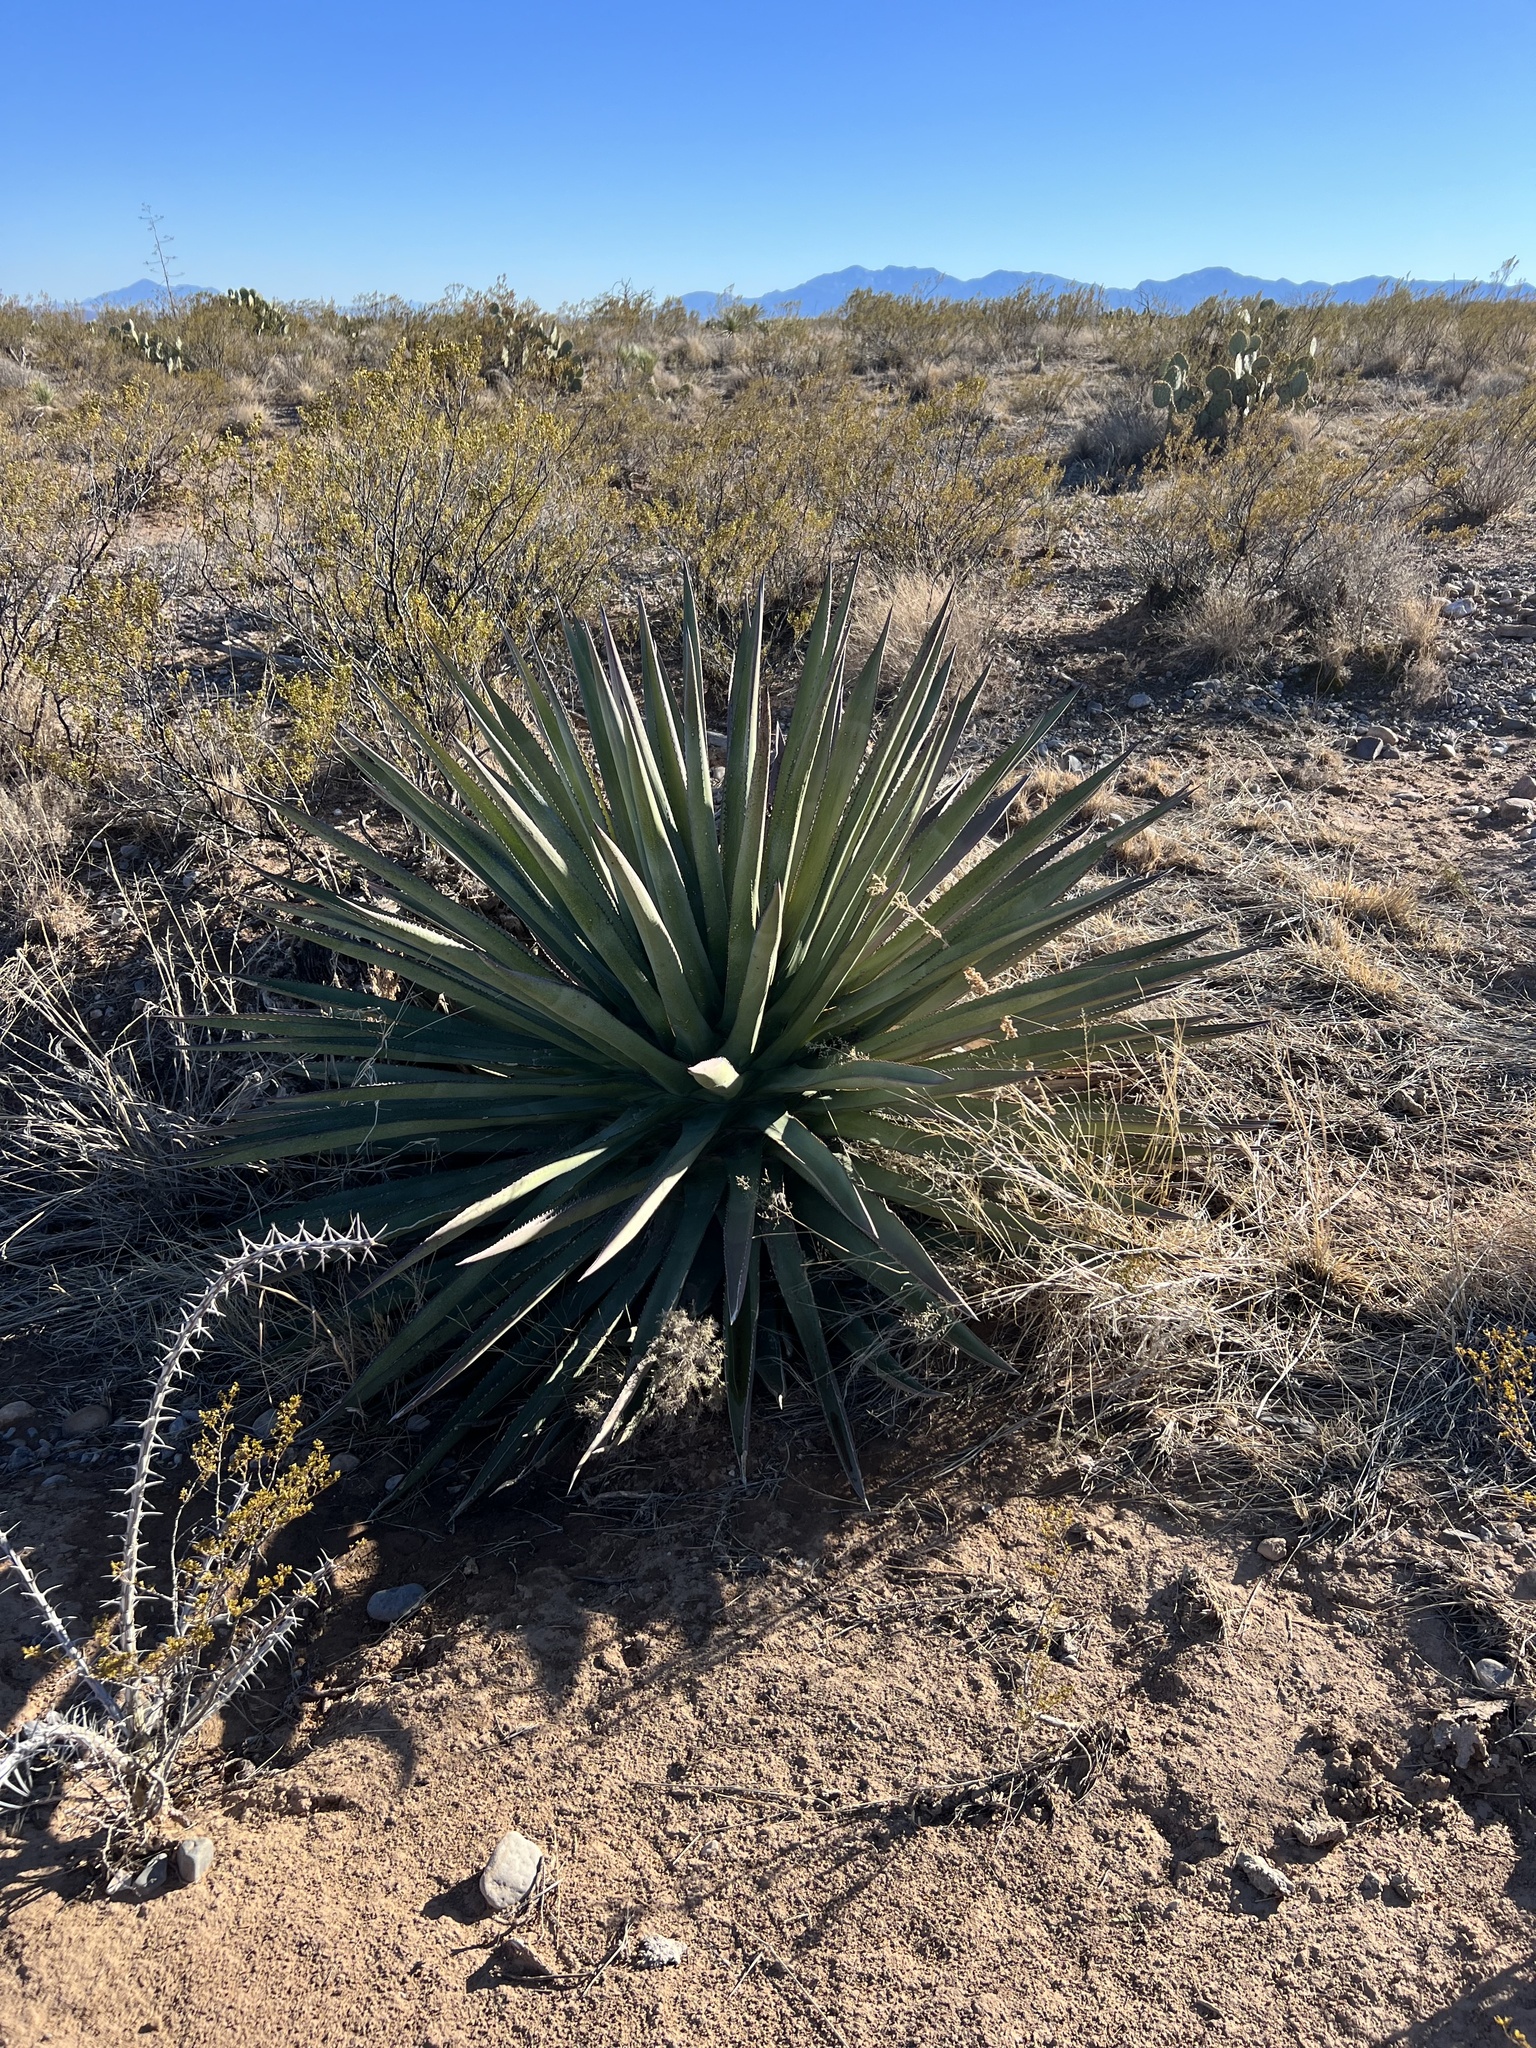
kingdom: Plantae
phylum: Tracheophyta
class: Liliopsida
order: Asparagales
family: Asparagaceae
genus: Agave
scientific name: Agave palmeri
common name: Palmer agave
